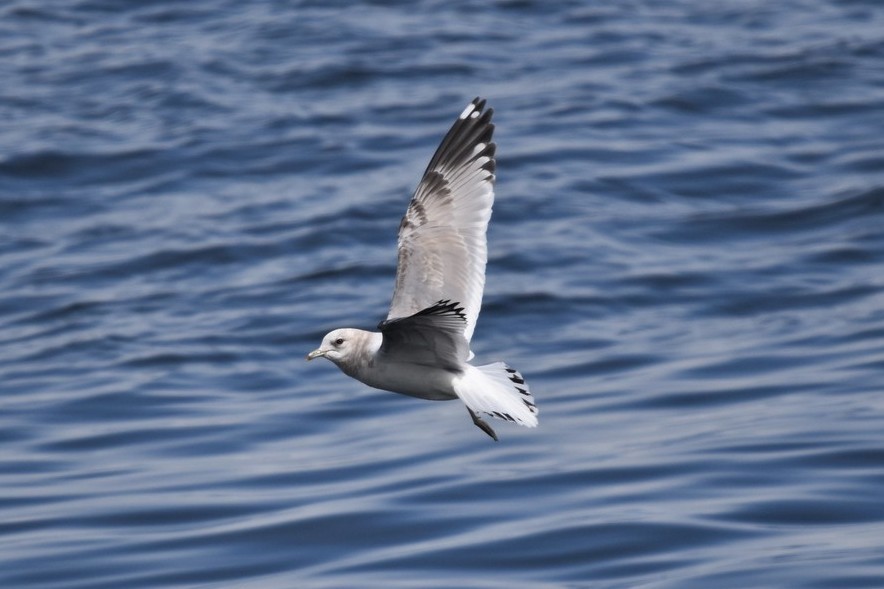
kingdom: Animalia
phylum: Chordata
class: Aves
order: Charadriiformes
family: Laridae
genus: Larus
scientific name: Larus brachyrhynchus
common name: Short-billed gull
